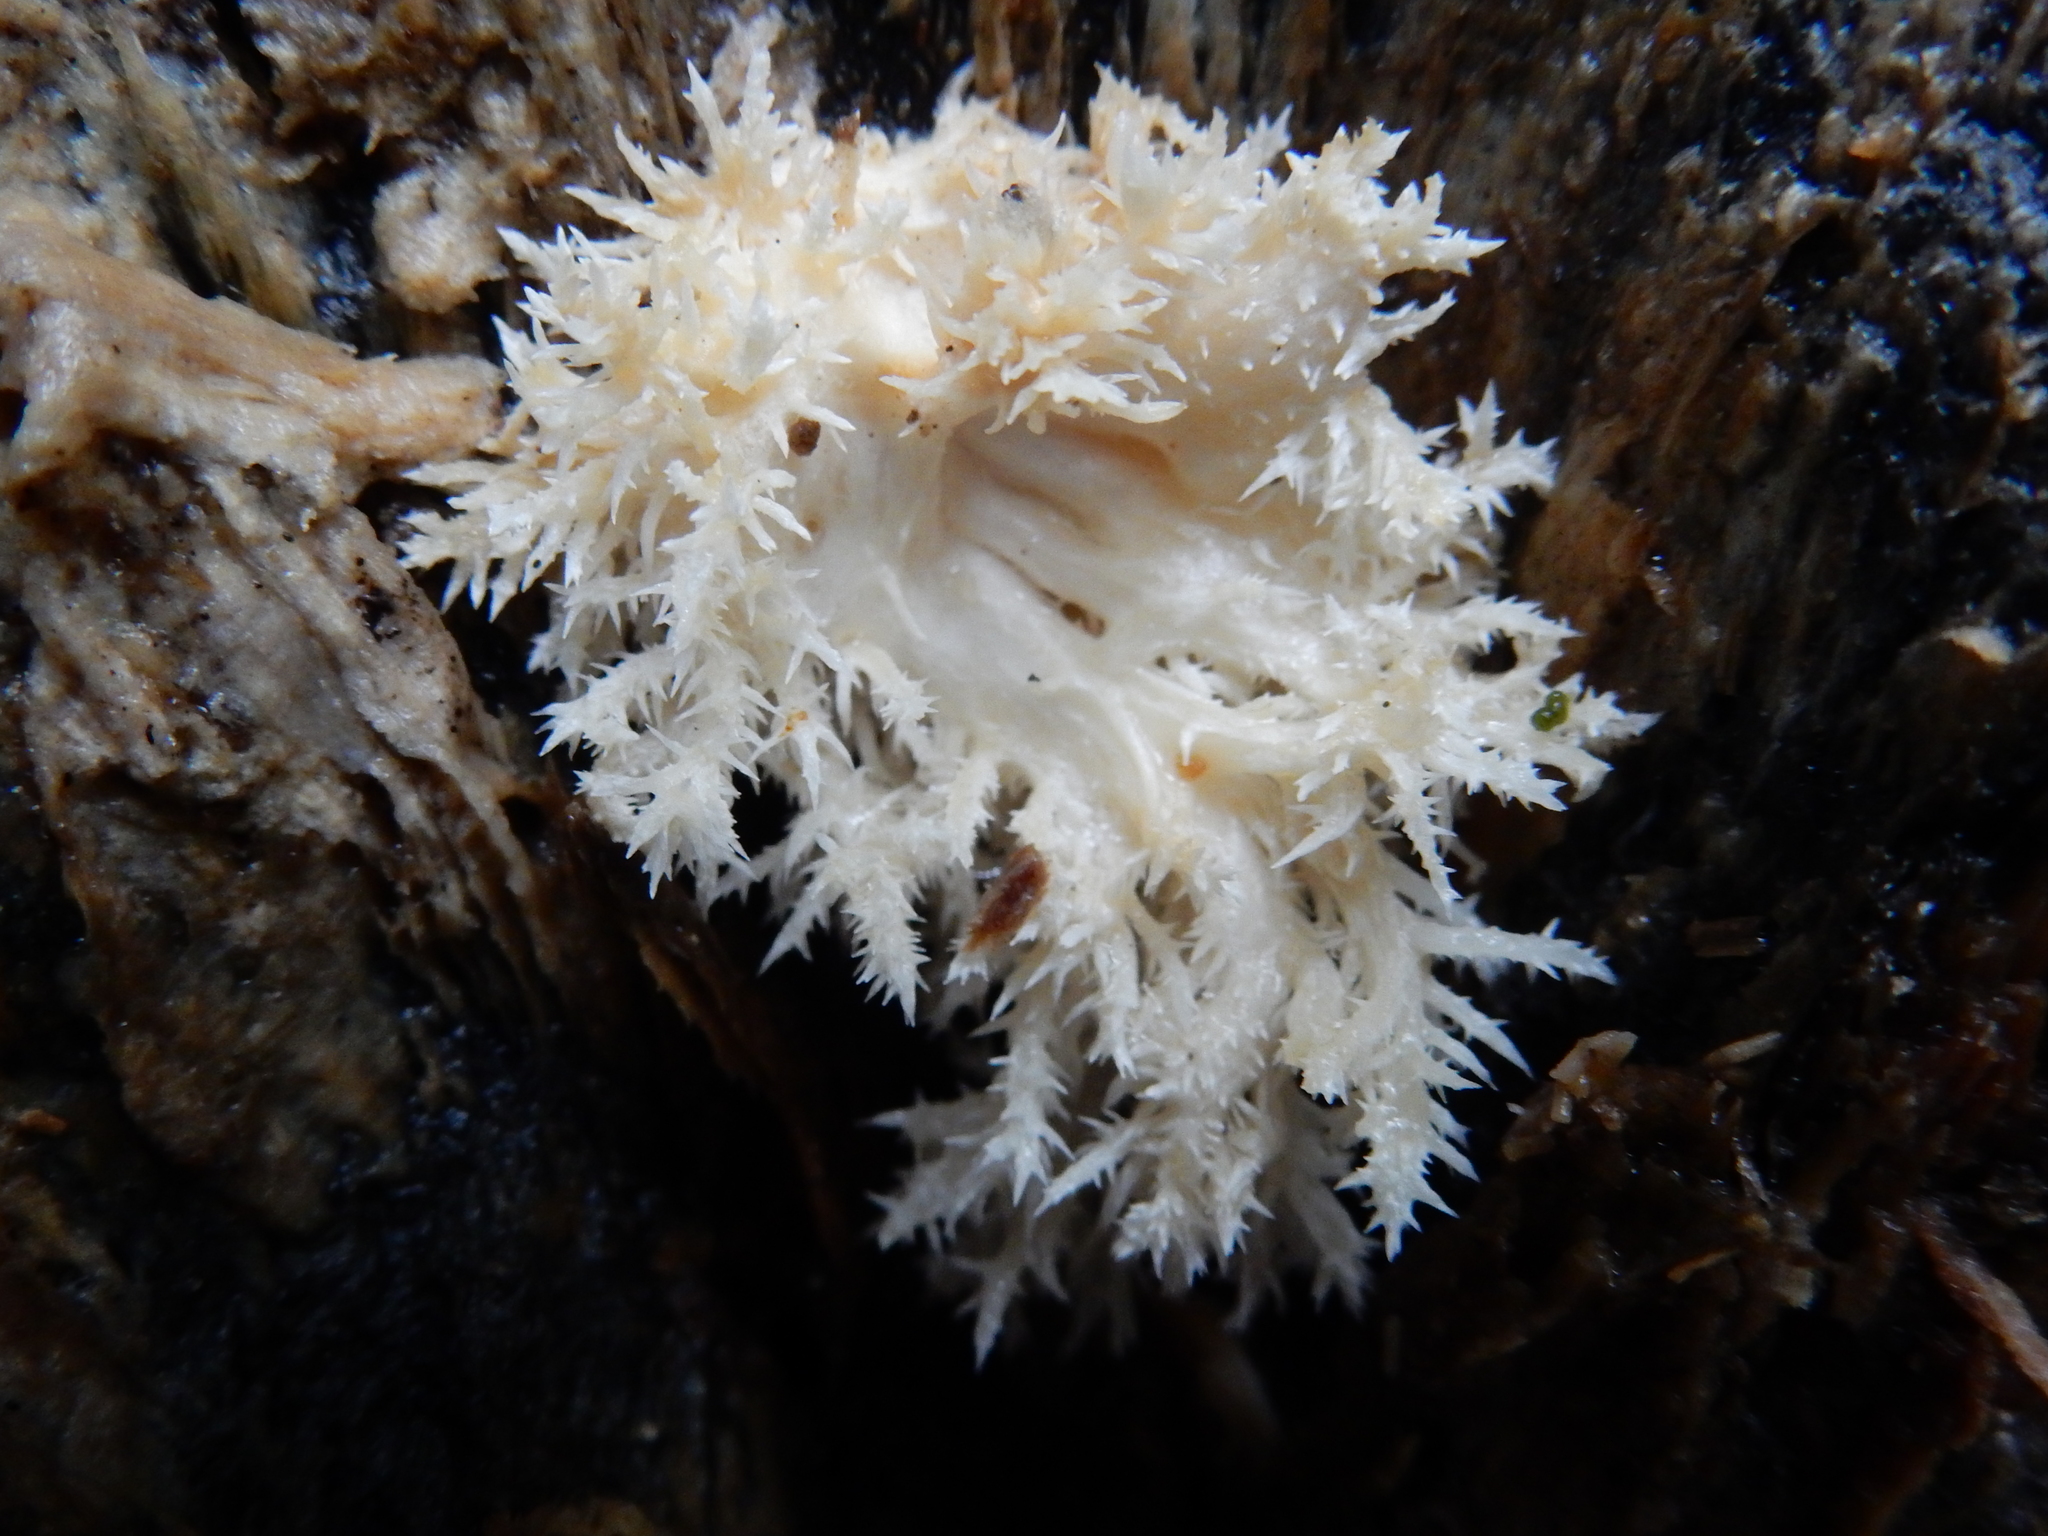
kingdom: Fungi
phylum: Basidiomycota
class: Agaricomycetes
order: Russulales
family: Hericiaceae
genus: Hericium
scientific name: Hericium novae-zealandiae
